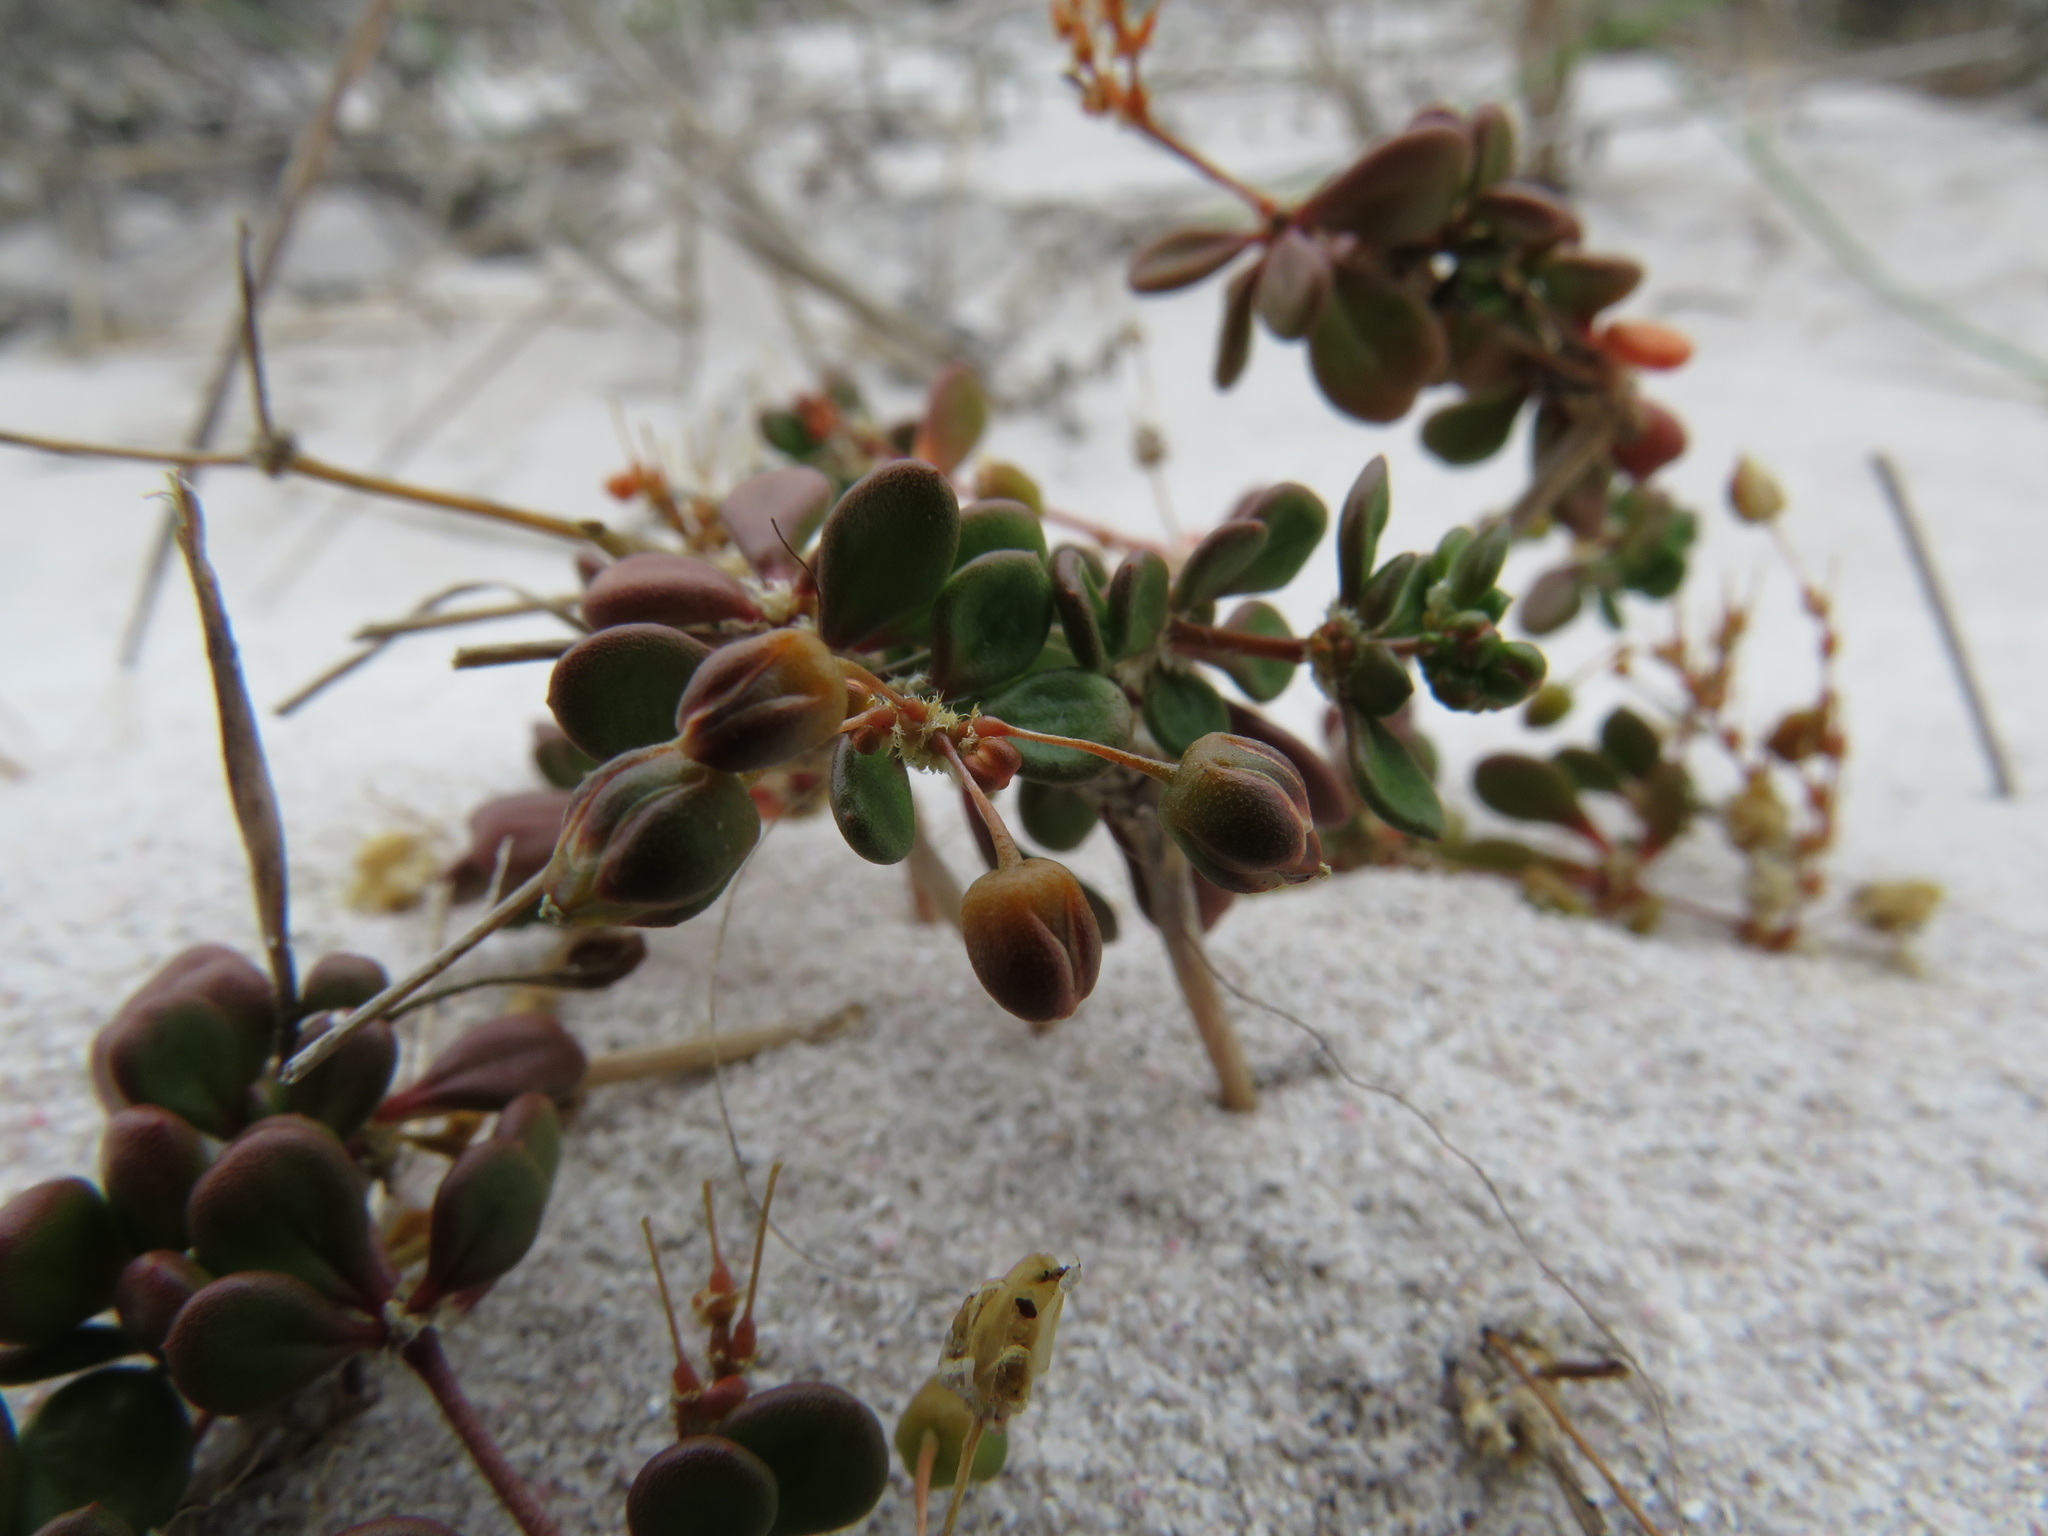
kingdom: Plantae
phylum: Tracheophyta
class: Magnoliopsida
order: Caryophyllales
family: Molluginaceae
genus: Pharnaceum
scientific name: Pharnaceum cordifolium
